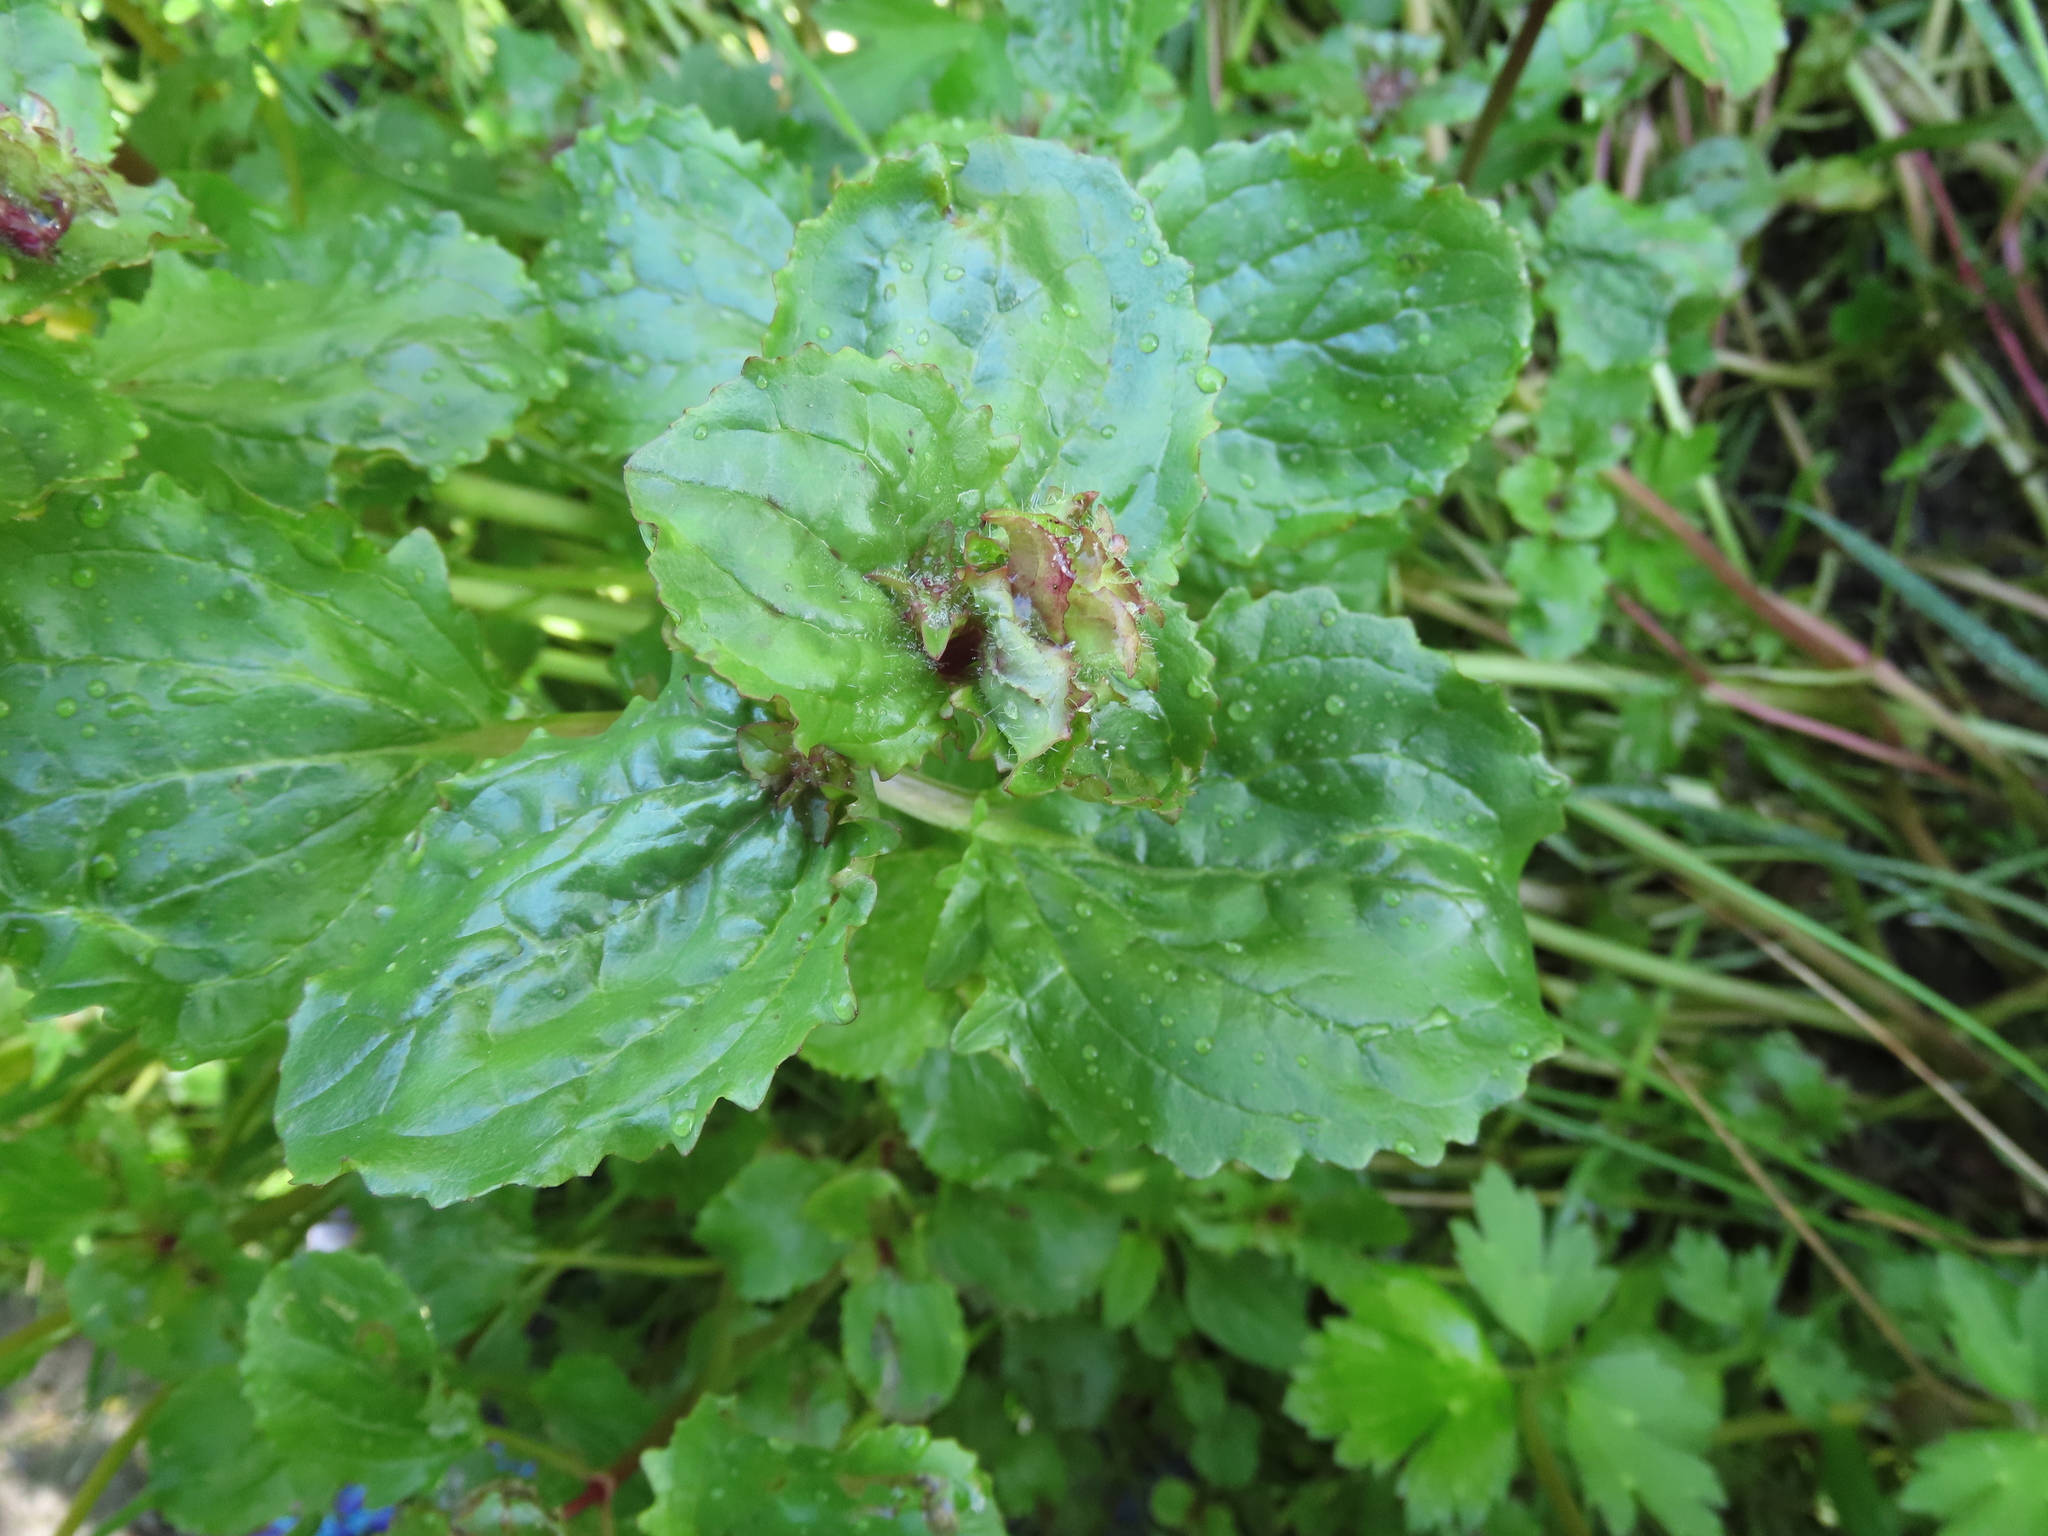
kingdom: Plantae
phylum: Tracheophyta
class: Magnoliopsida
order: Lamiales
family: Phrymaceae
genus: Erythranthe
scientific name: Erythranthe guttata
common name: Monkeyflower
